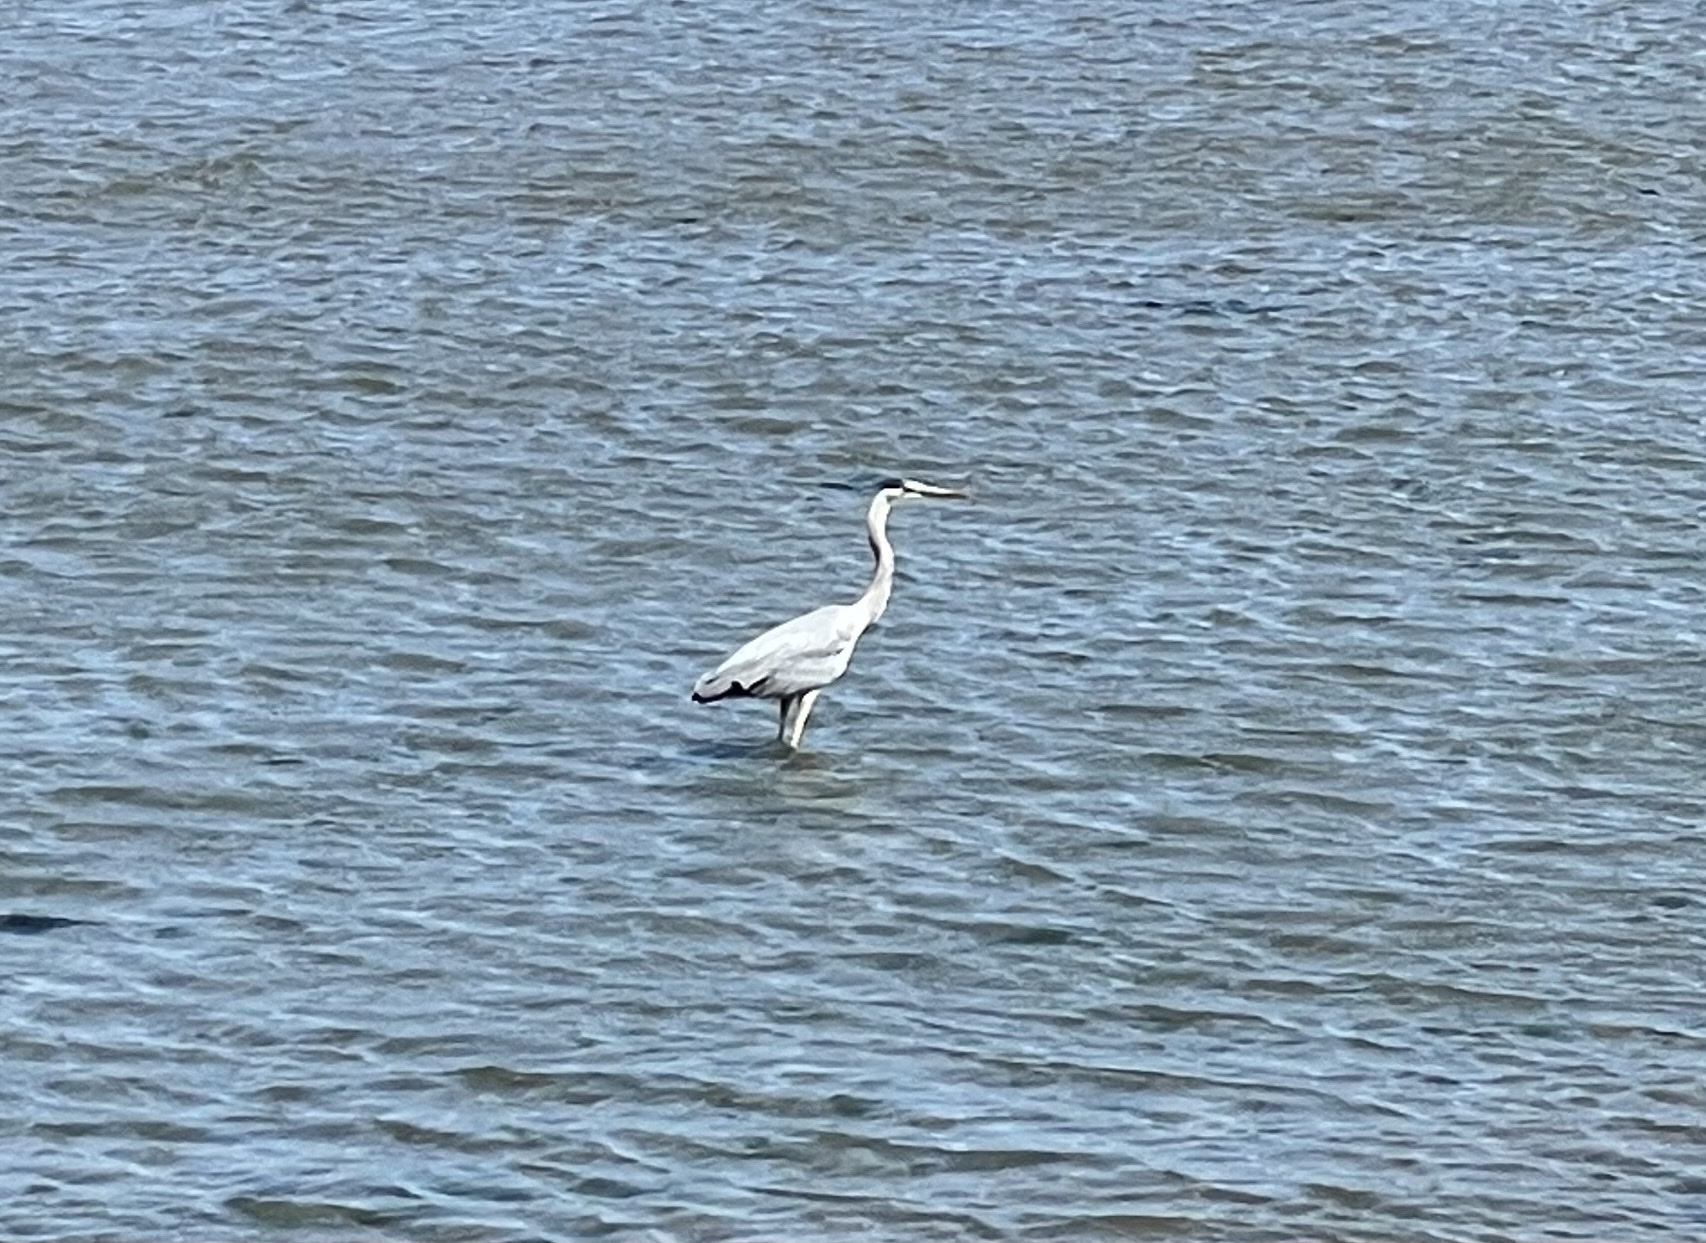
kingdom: Animalia
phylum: Chordata
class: Aves
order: Pelecaniformes
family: Ardeidae
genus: Ardea
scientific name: Ardea herodias
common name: Great blue heron
